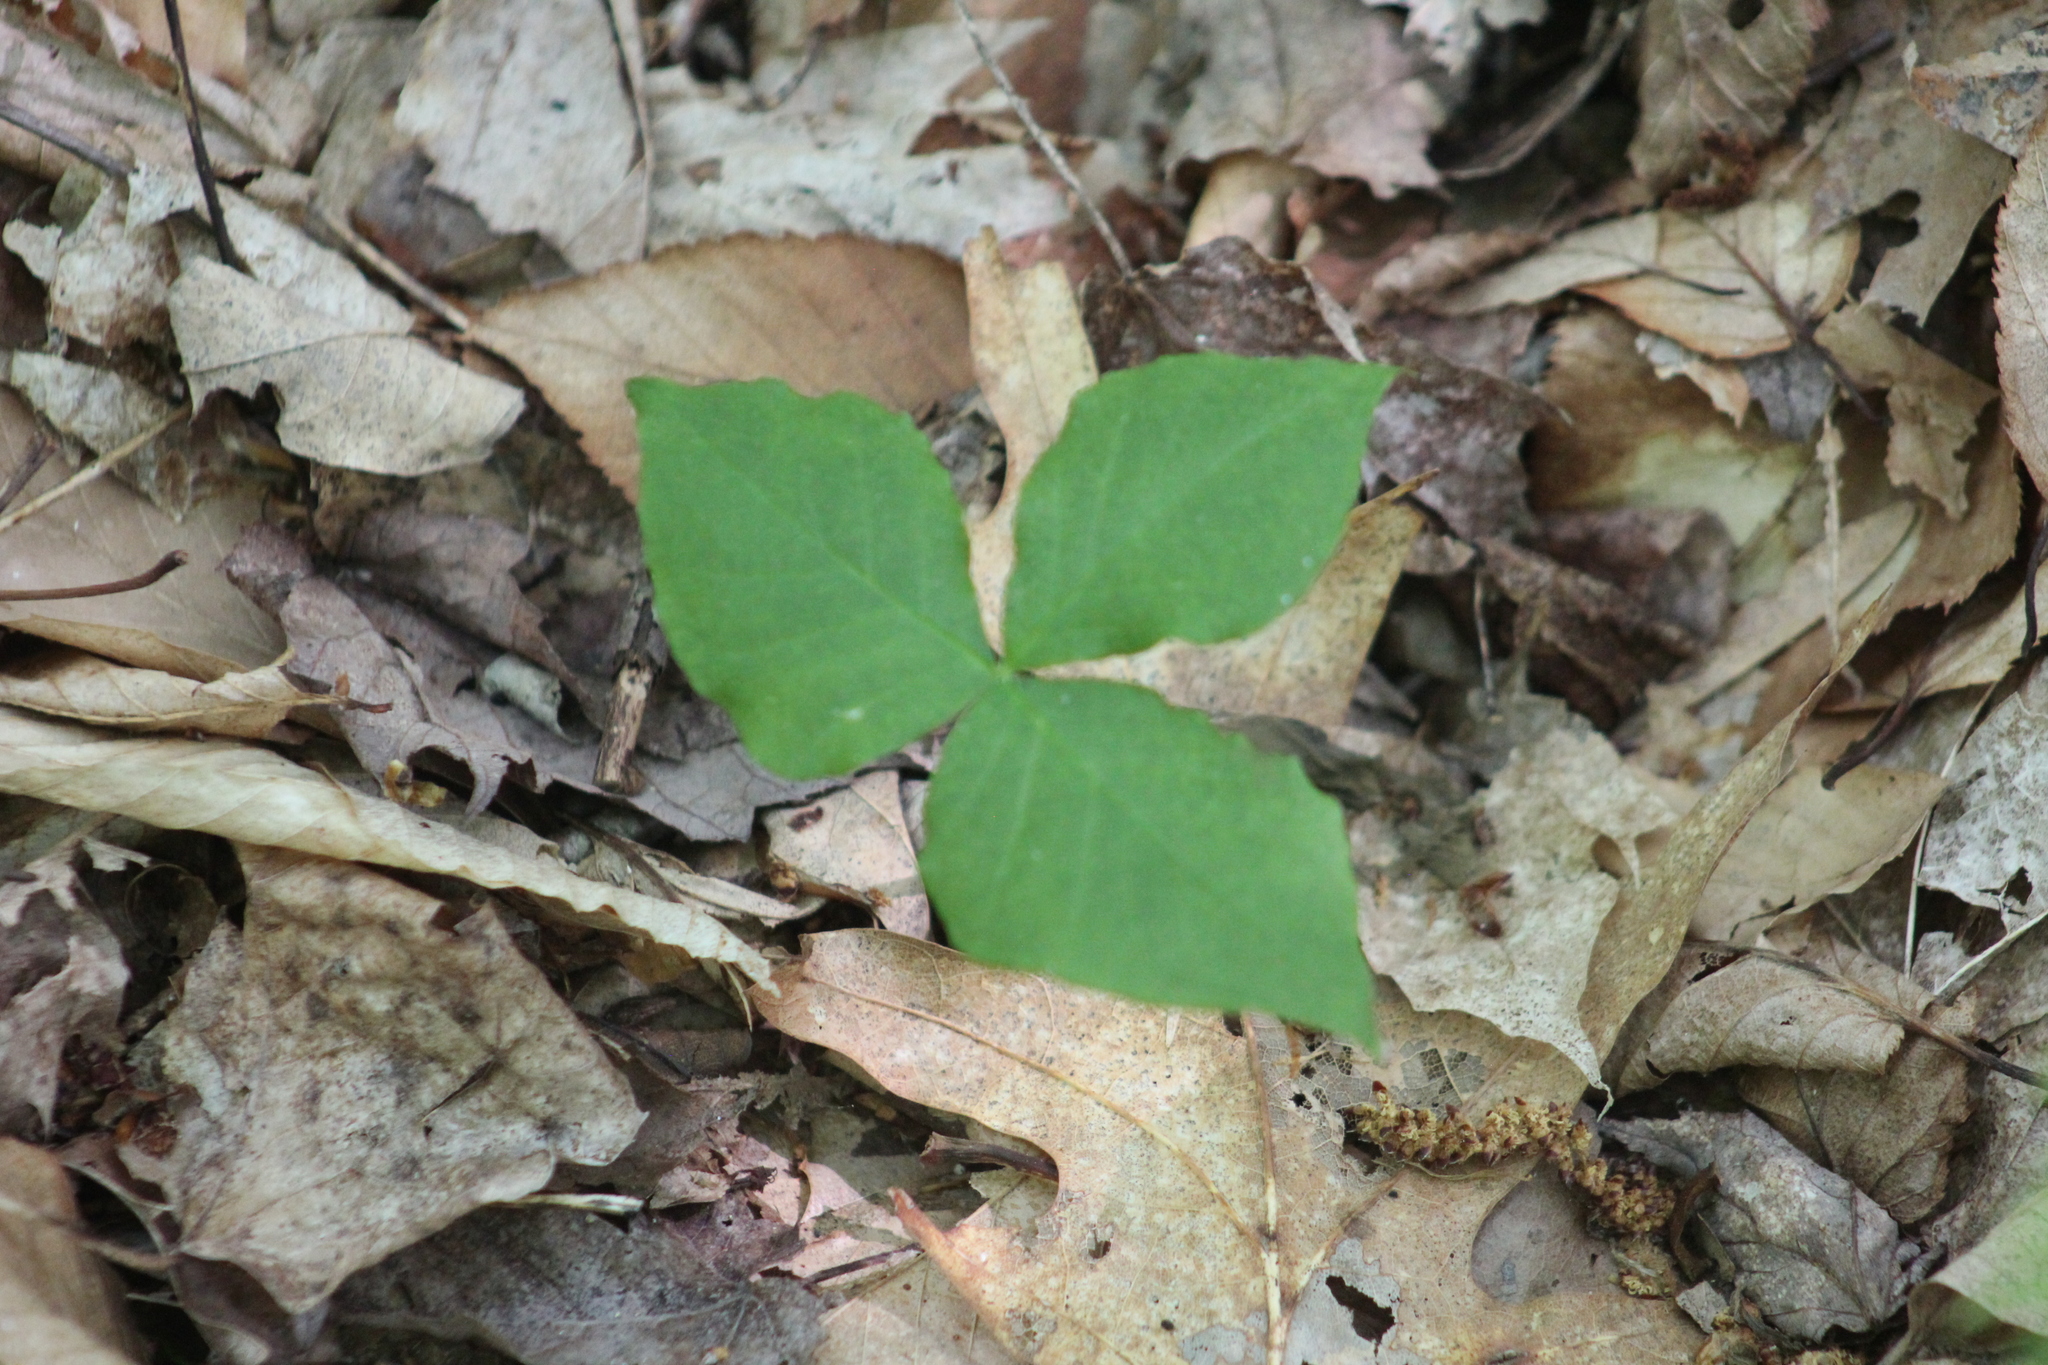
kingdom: Plantae
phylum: Tracheophyta
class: Liliopsida
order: Alismatales
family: Araceae
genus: Arisaema
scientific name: Arisaema triphyllum
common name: Jack-in-the-pulpit
